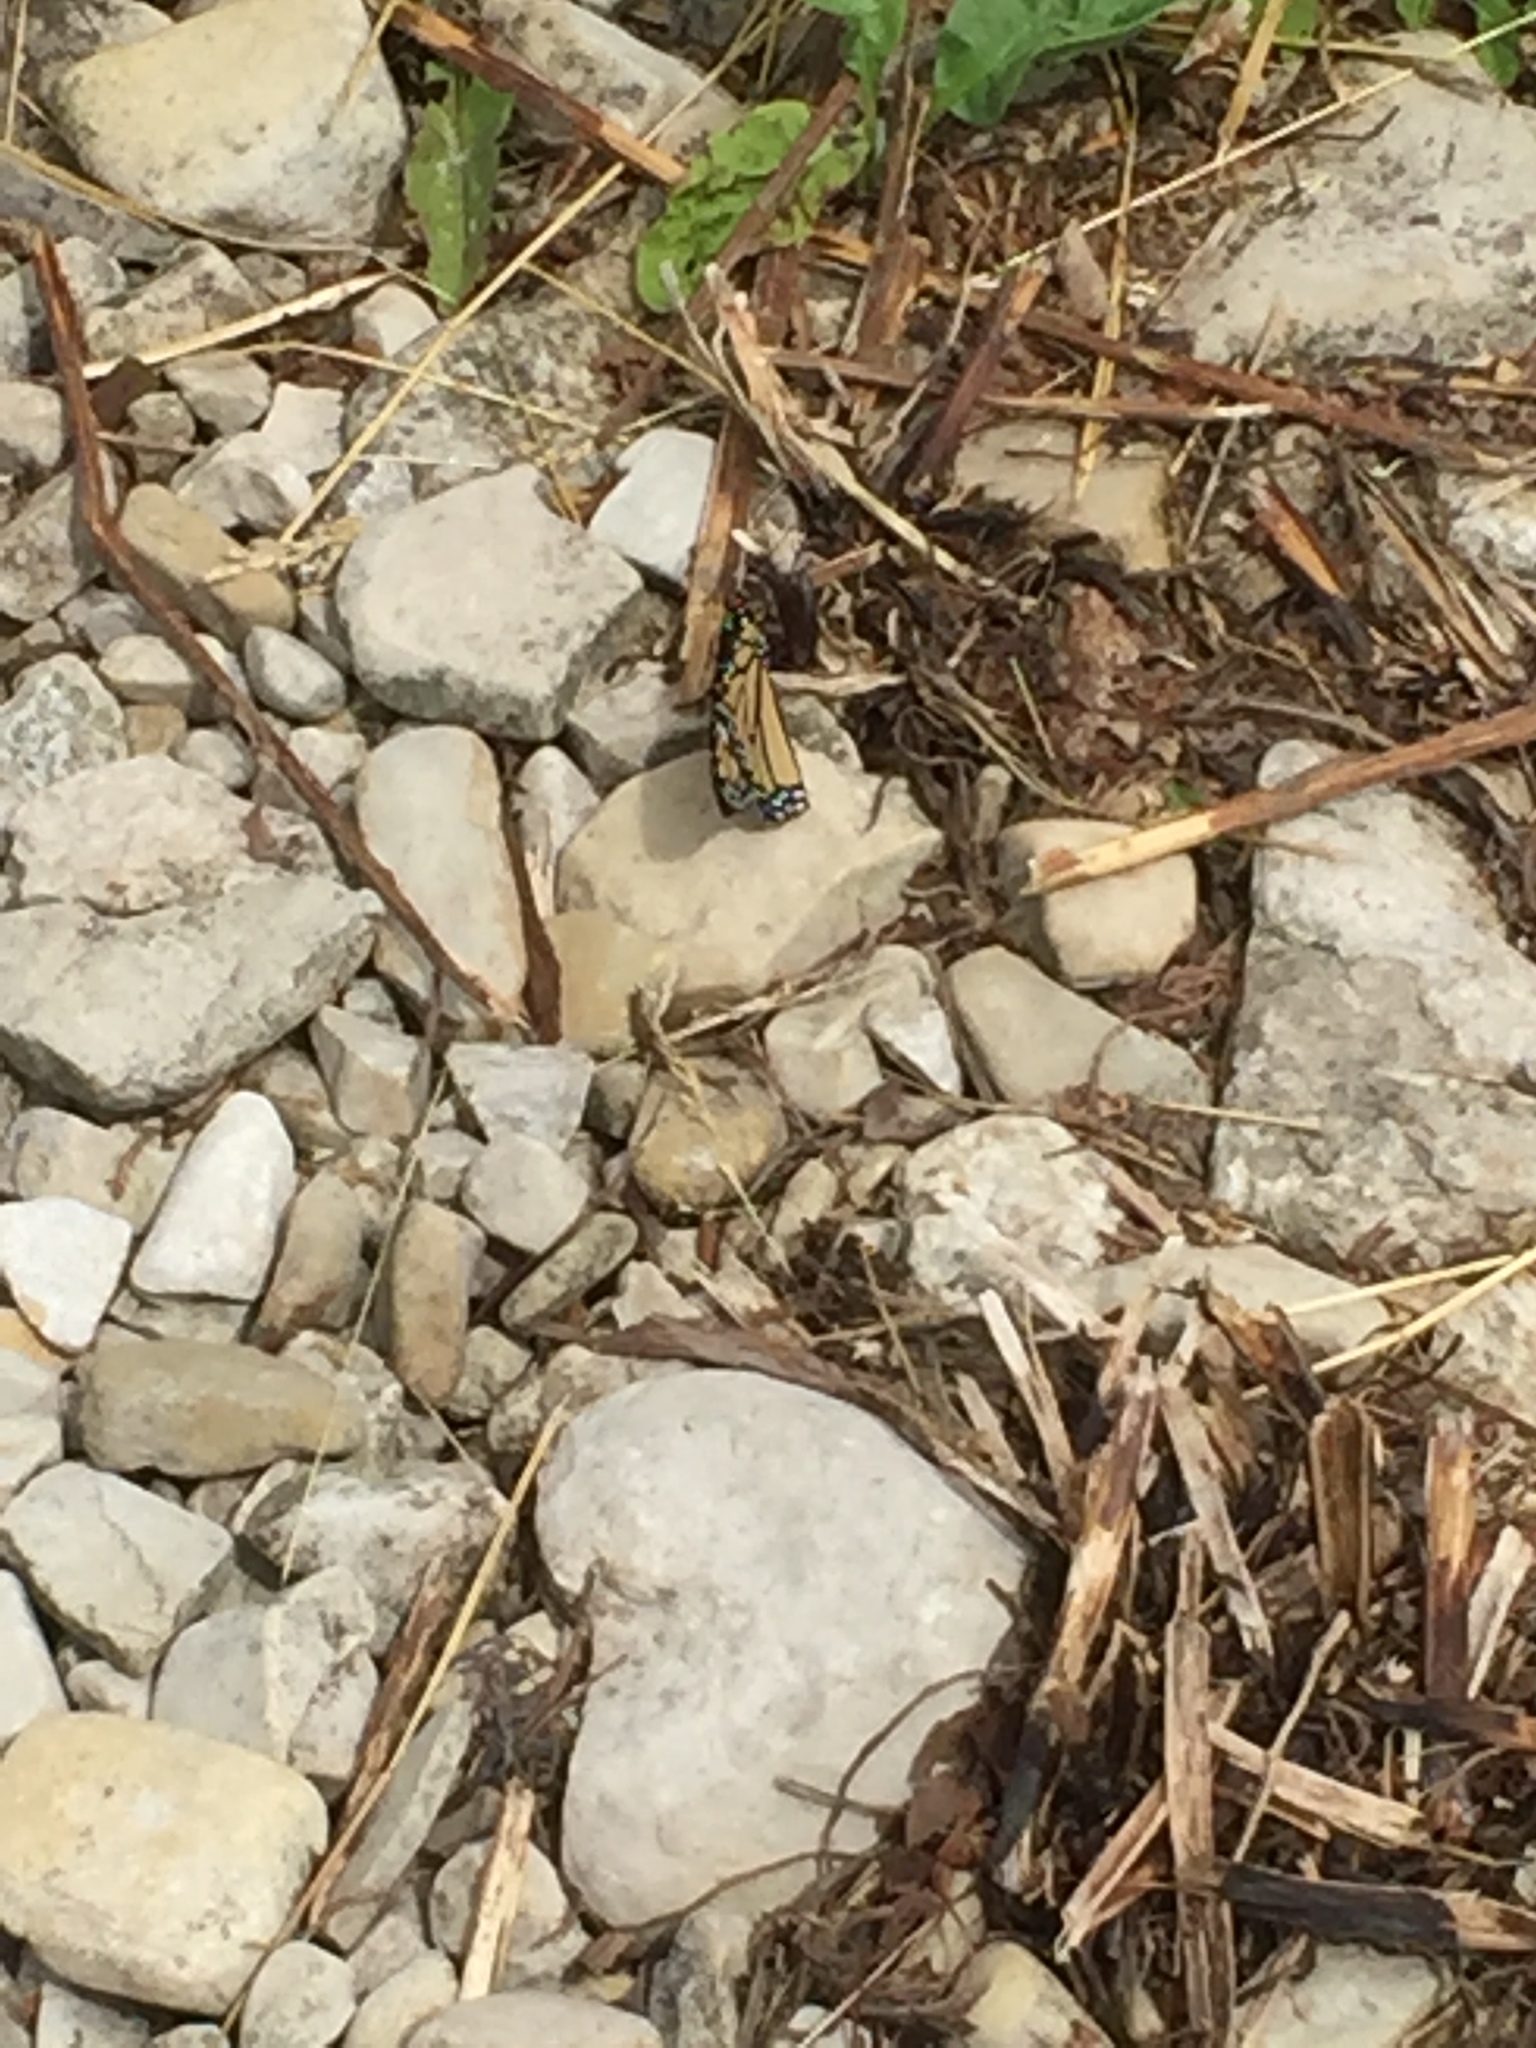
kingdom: Animalia
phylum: Arthropoda
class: Insecta
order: Lepidoptera
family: Nymphalidae
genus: Danaus
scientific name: Danaus plexippus
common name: Monarch
